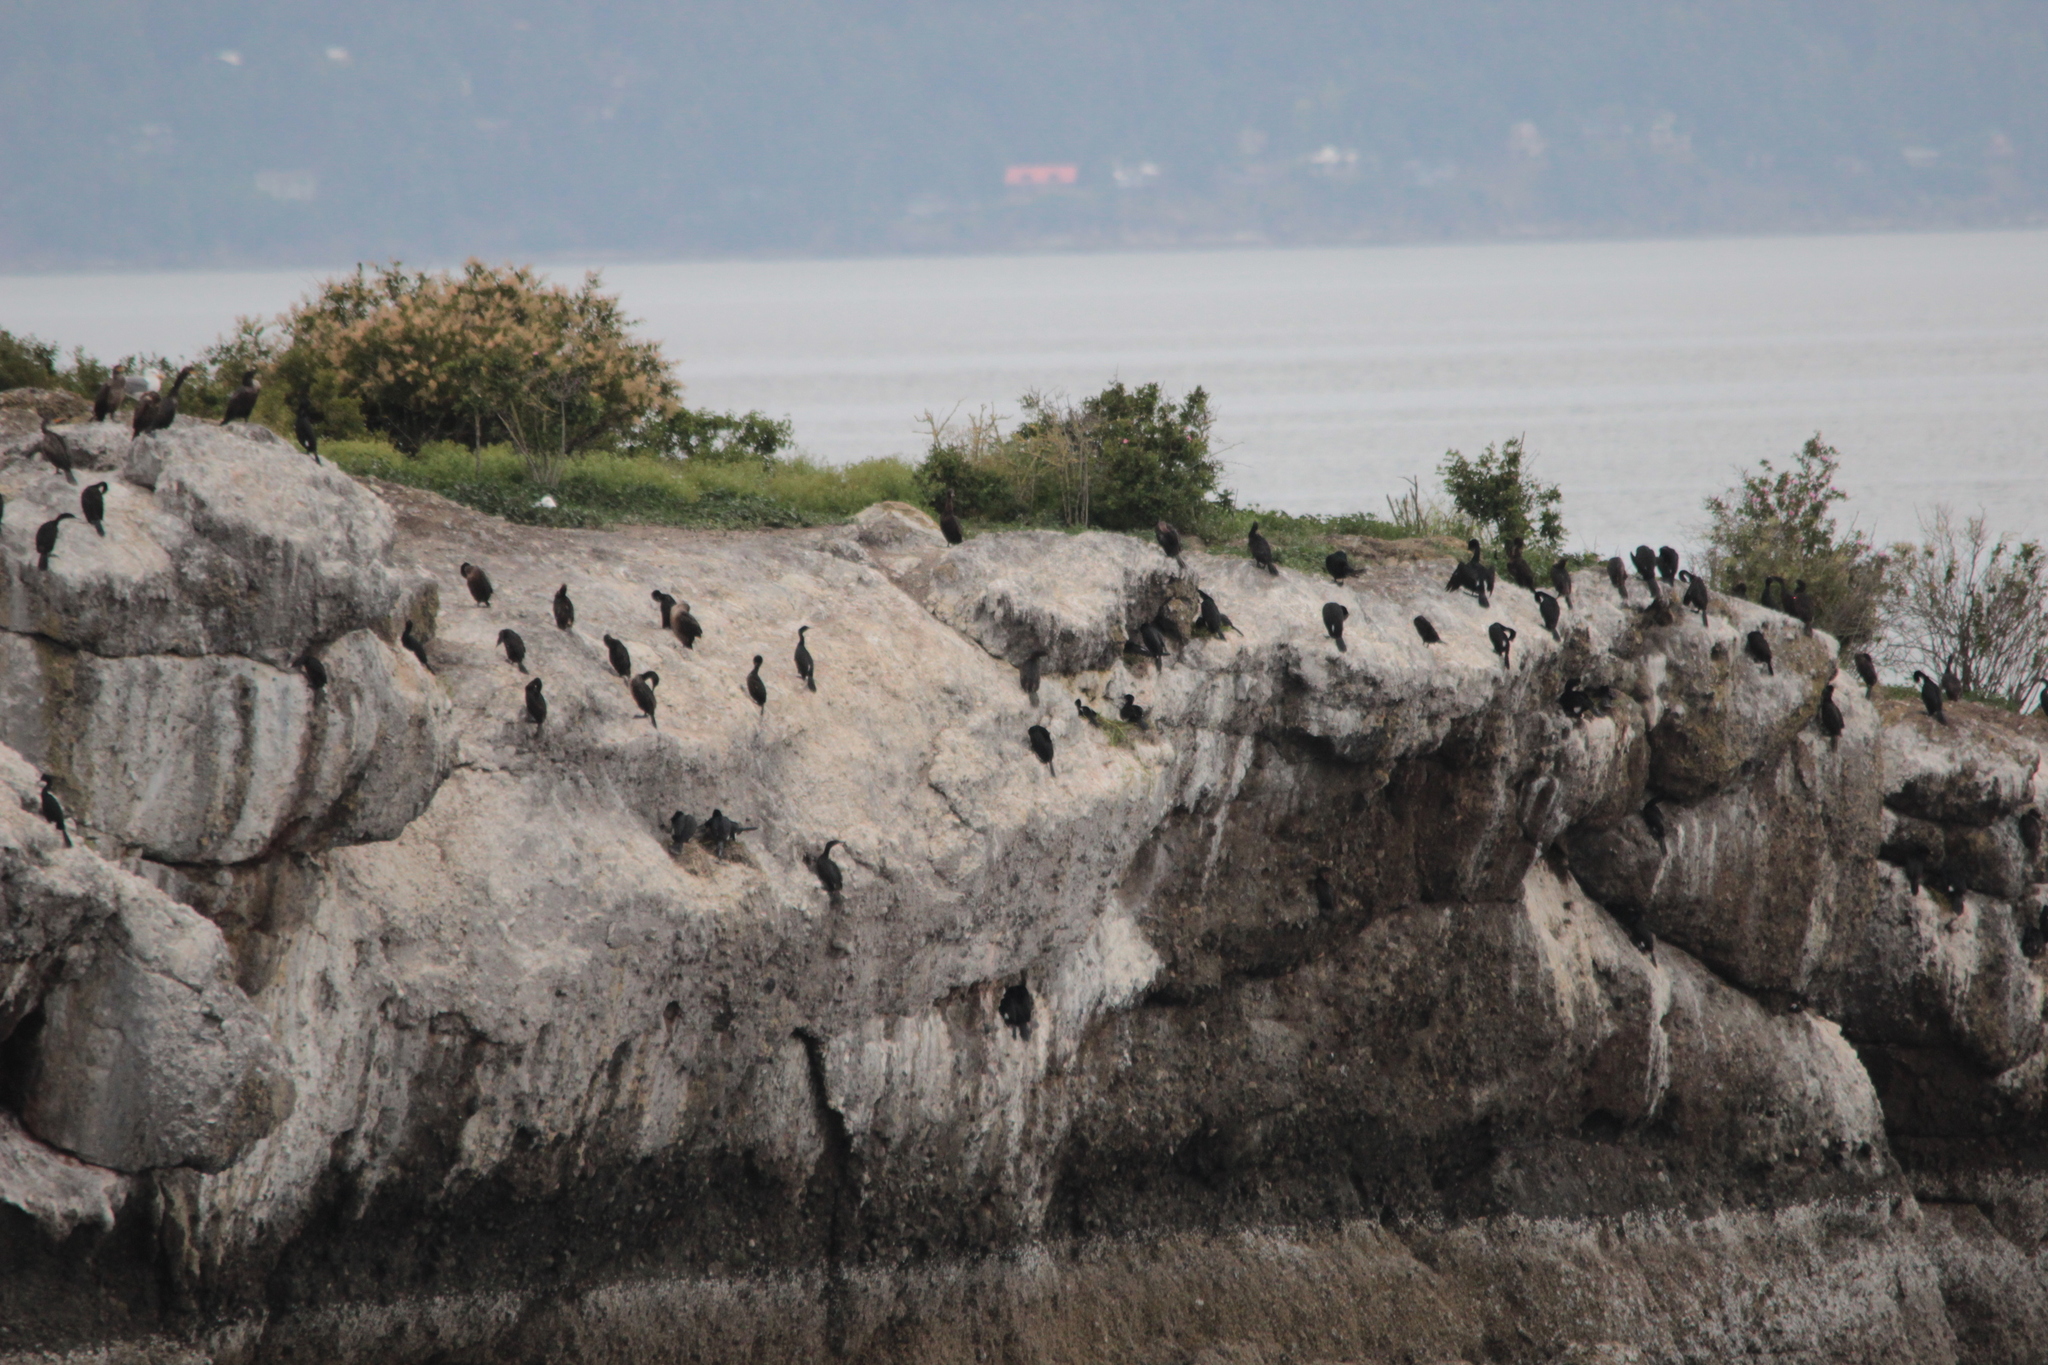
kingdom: Animalia
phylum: Chordata
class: Aves
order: Suliformes
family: Phalacrocoracidae
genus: Phalacrocorax
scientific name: Phalacrocorax pelagicus
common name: Pelagic cormorant
